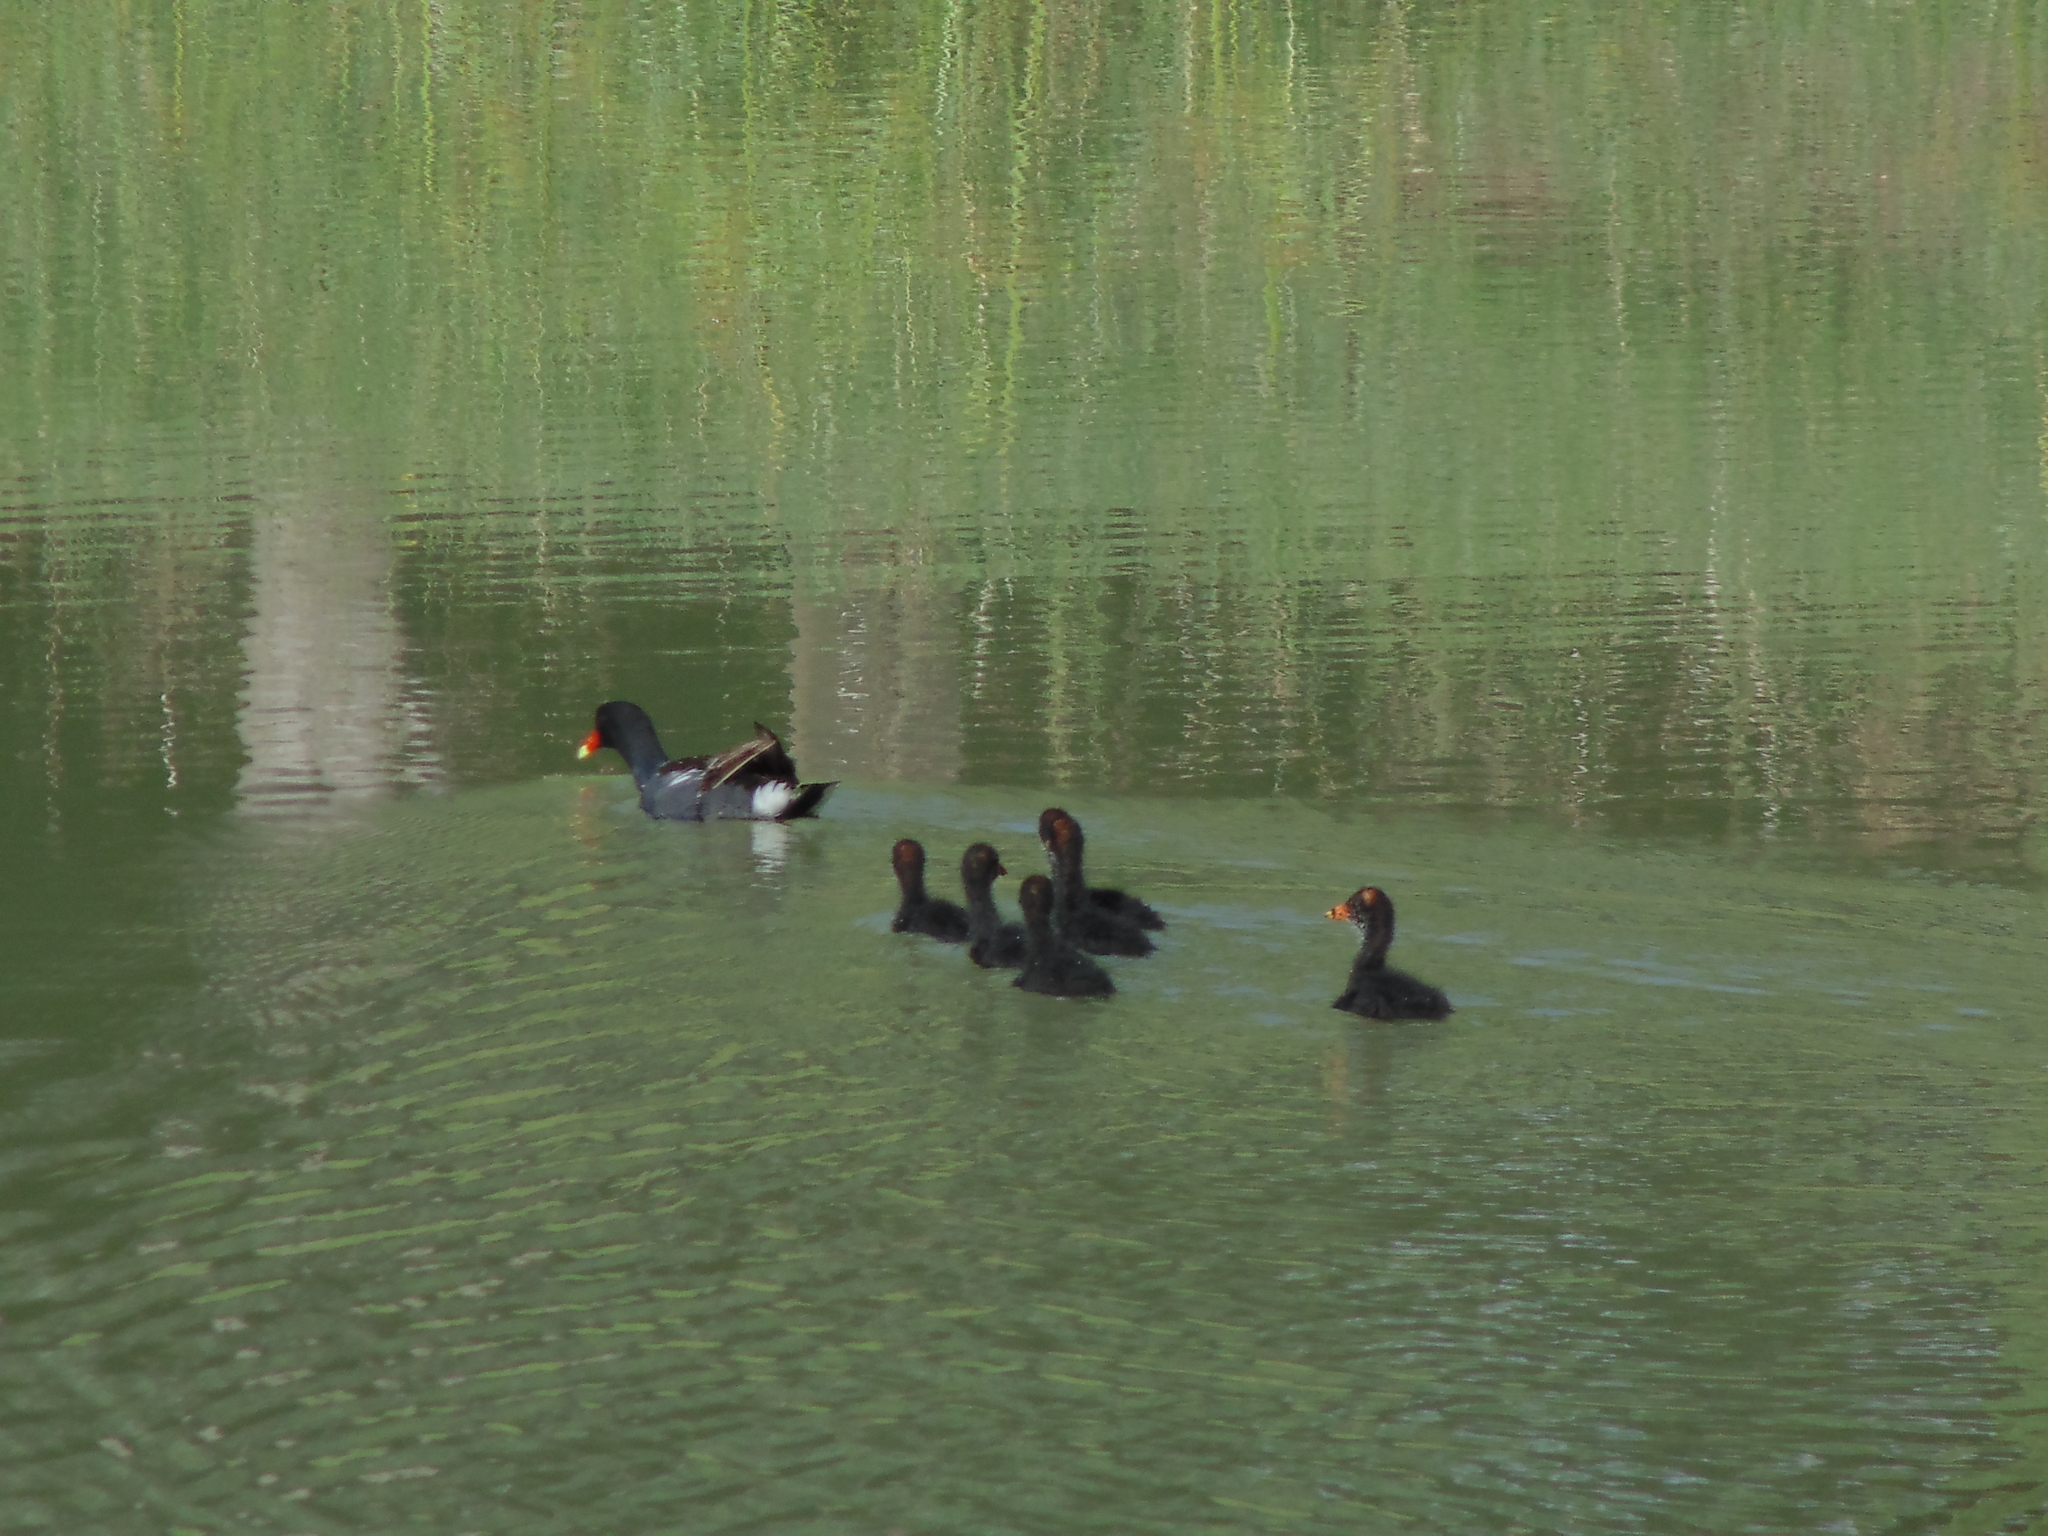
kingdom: Animalia
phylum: Chordata
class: Aves
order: Gruiformes
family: Rallidae
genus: Gallinula
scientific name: Gallinula chloropus
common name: Common moorhen
